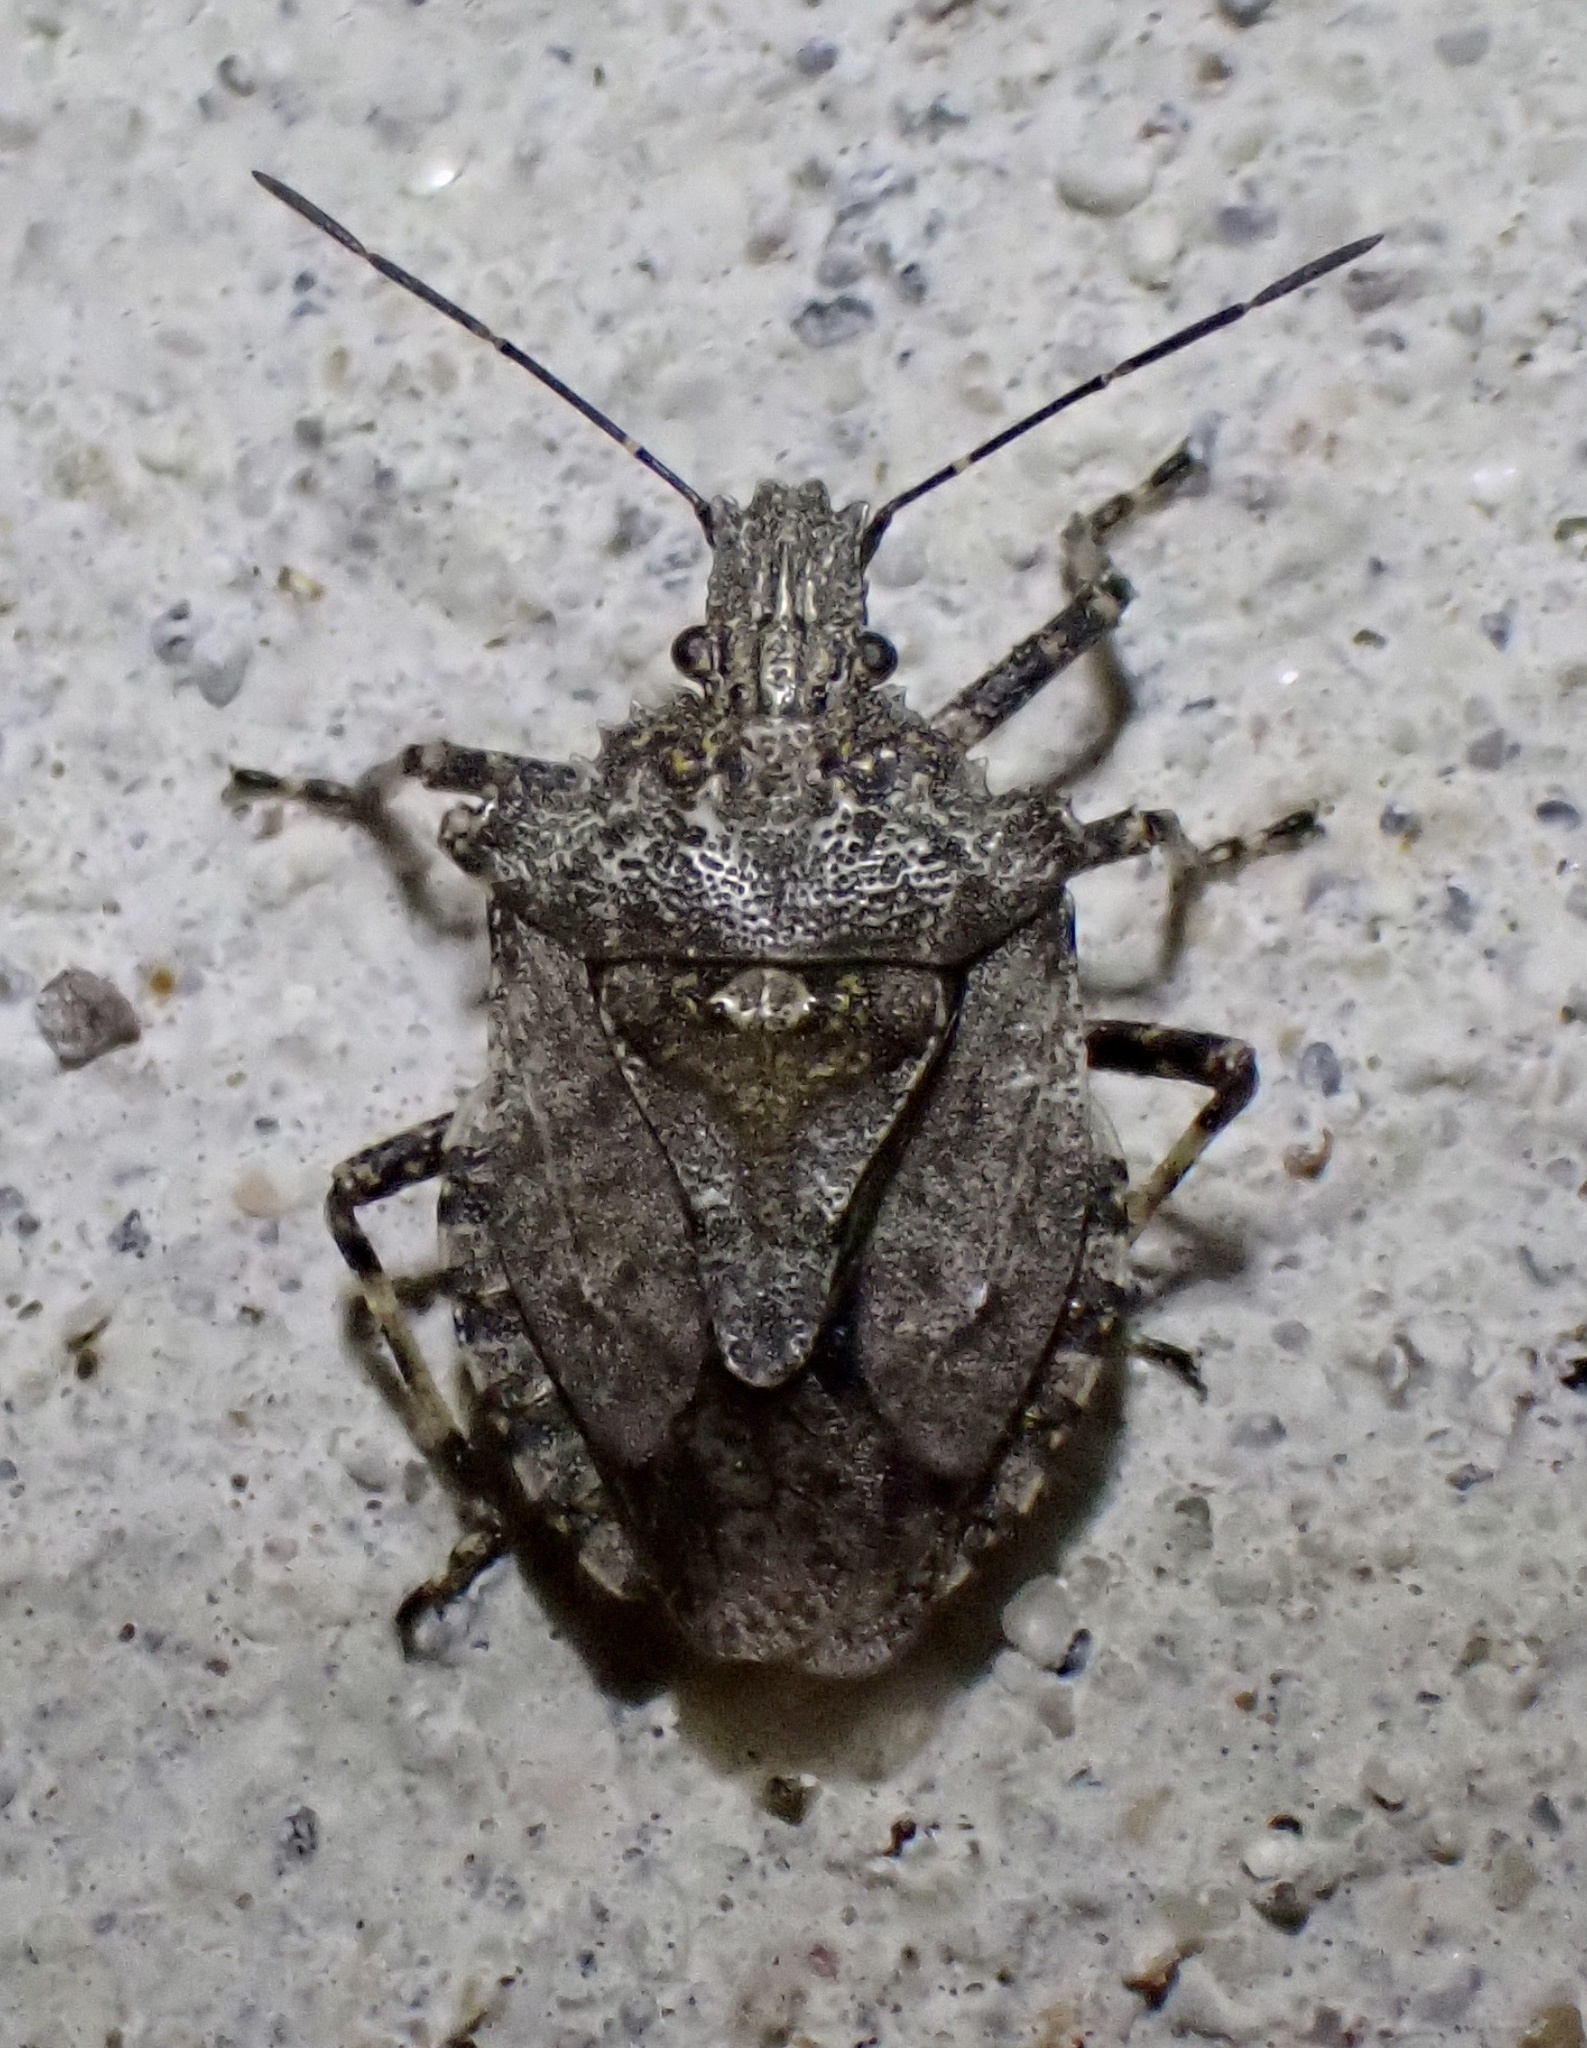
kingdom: Animalia
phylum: Arthropoda
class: Insecta
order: Hemiptera
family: Pentatomidae
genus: Brochymena
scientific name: Brochymena arborea
